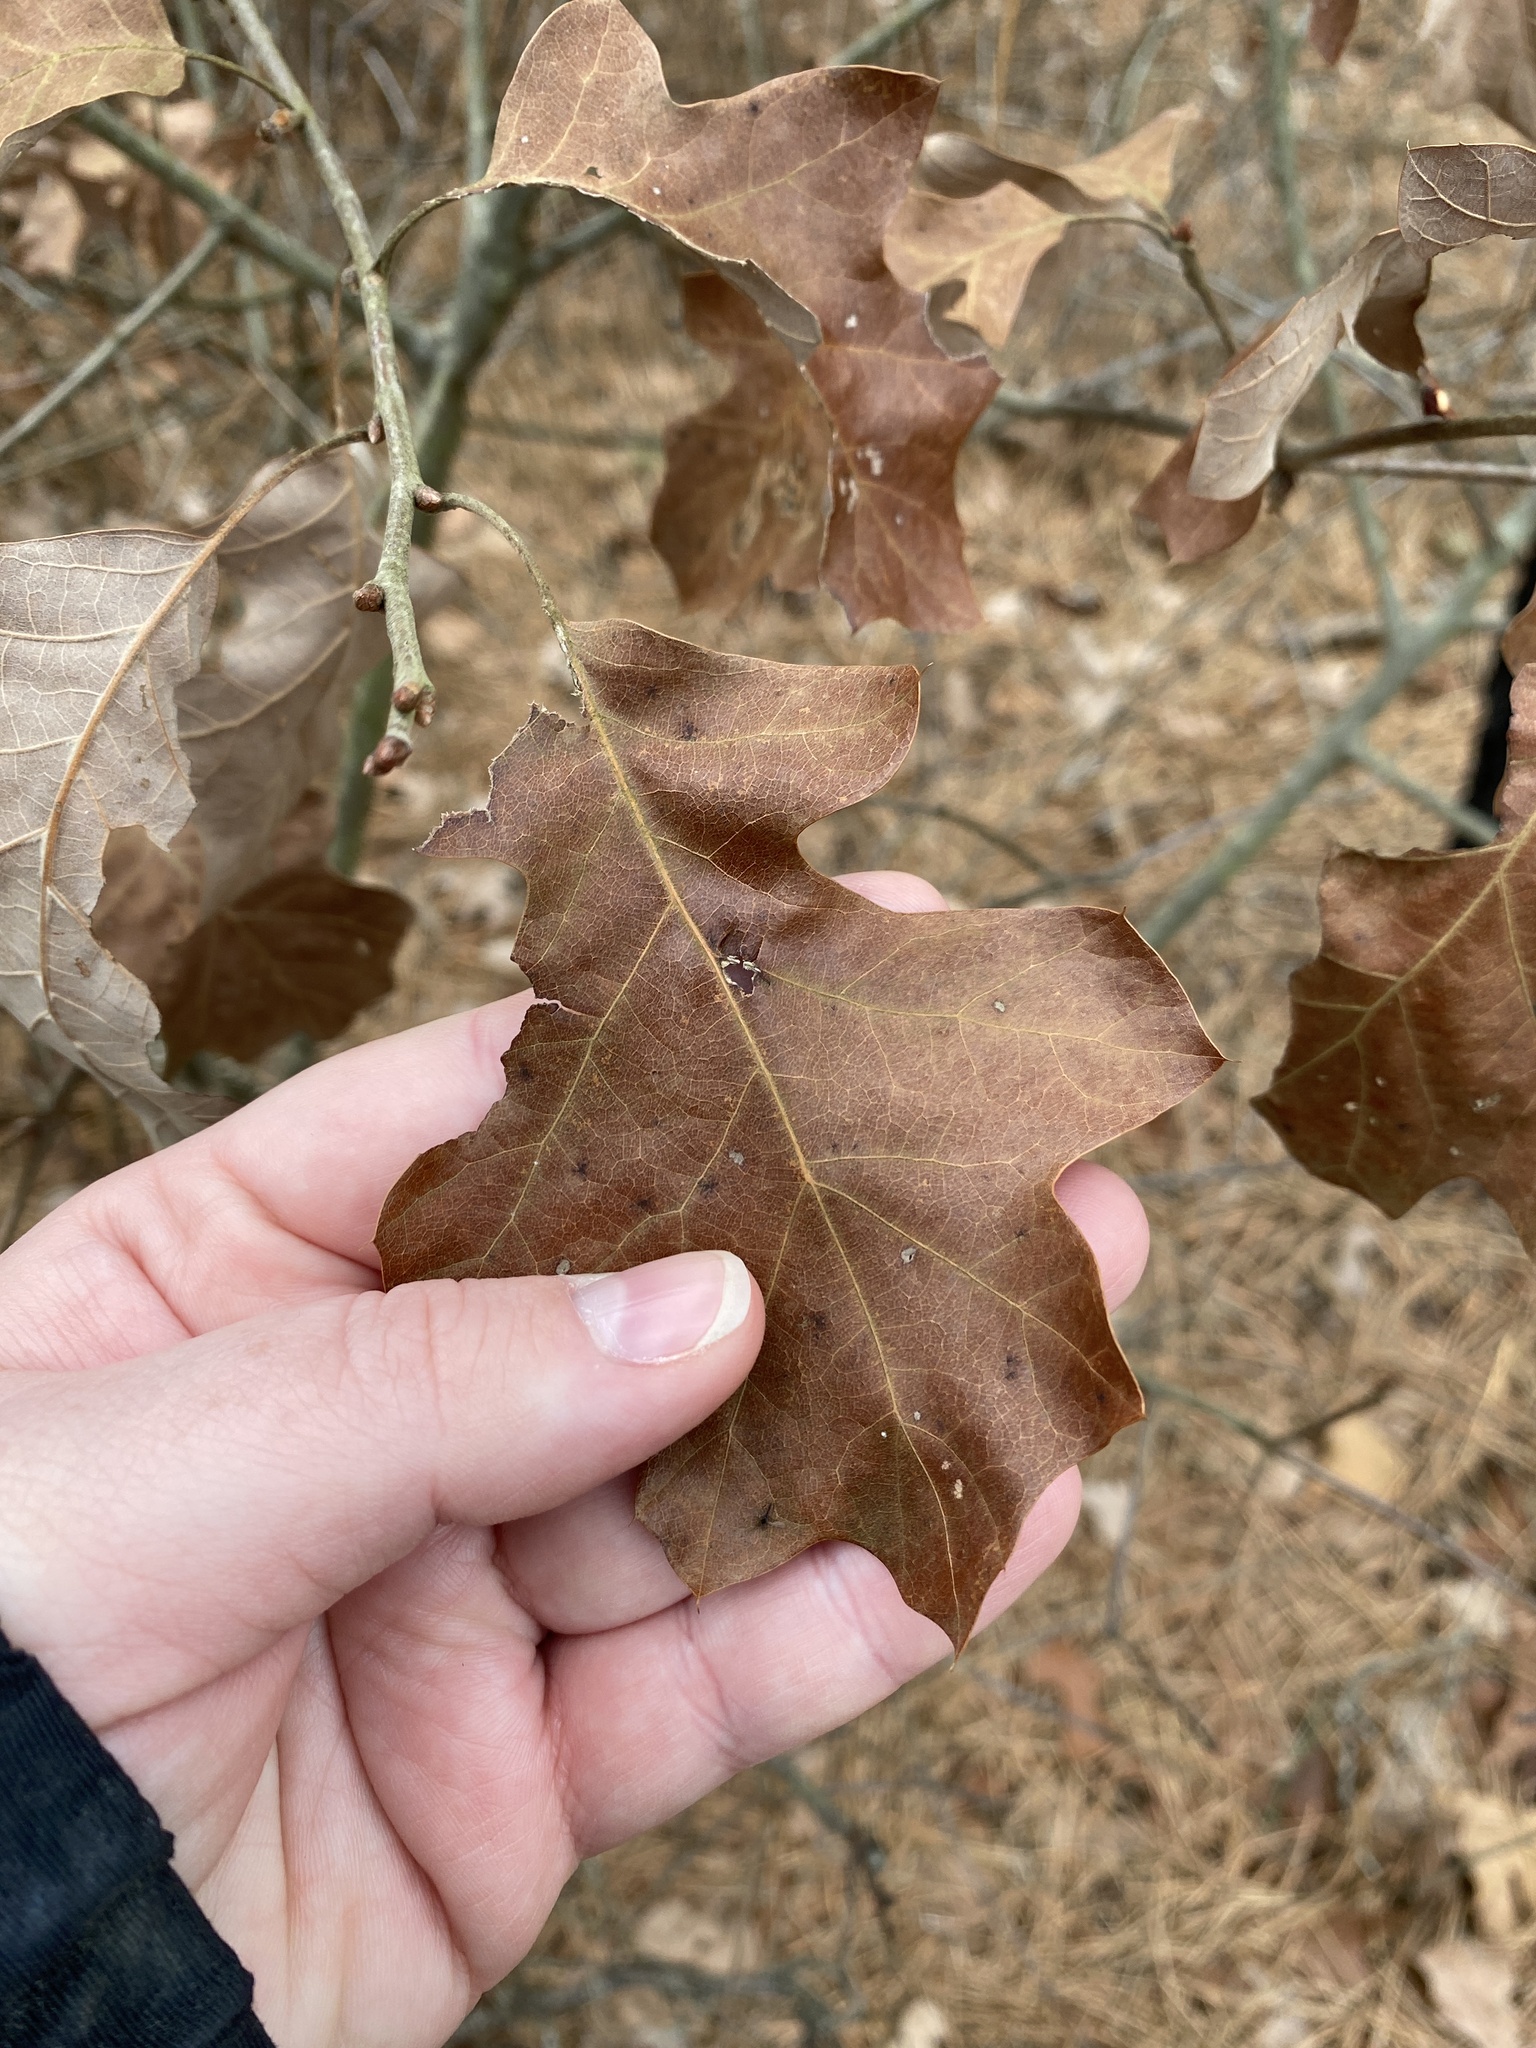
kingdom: Plantae
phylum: Tracheophyta
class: Magnoliopsida
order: Fagales
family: Fagaceae
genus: Quercus
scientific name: Quercus ilicifolia
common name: Bear oak
